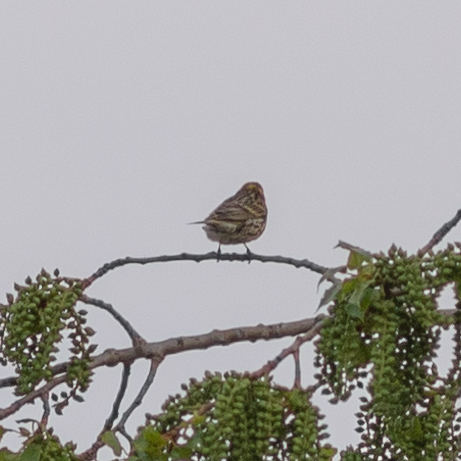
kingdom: Animalia
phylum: Chordata
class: Aves
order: Passeriformes
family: Fringillidae
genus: Serinus
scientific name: Serinus serinus
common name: European serin
